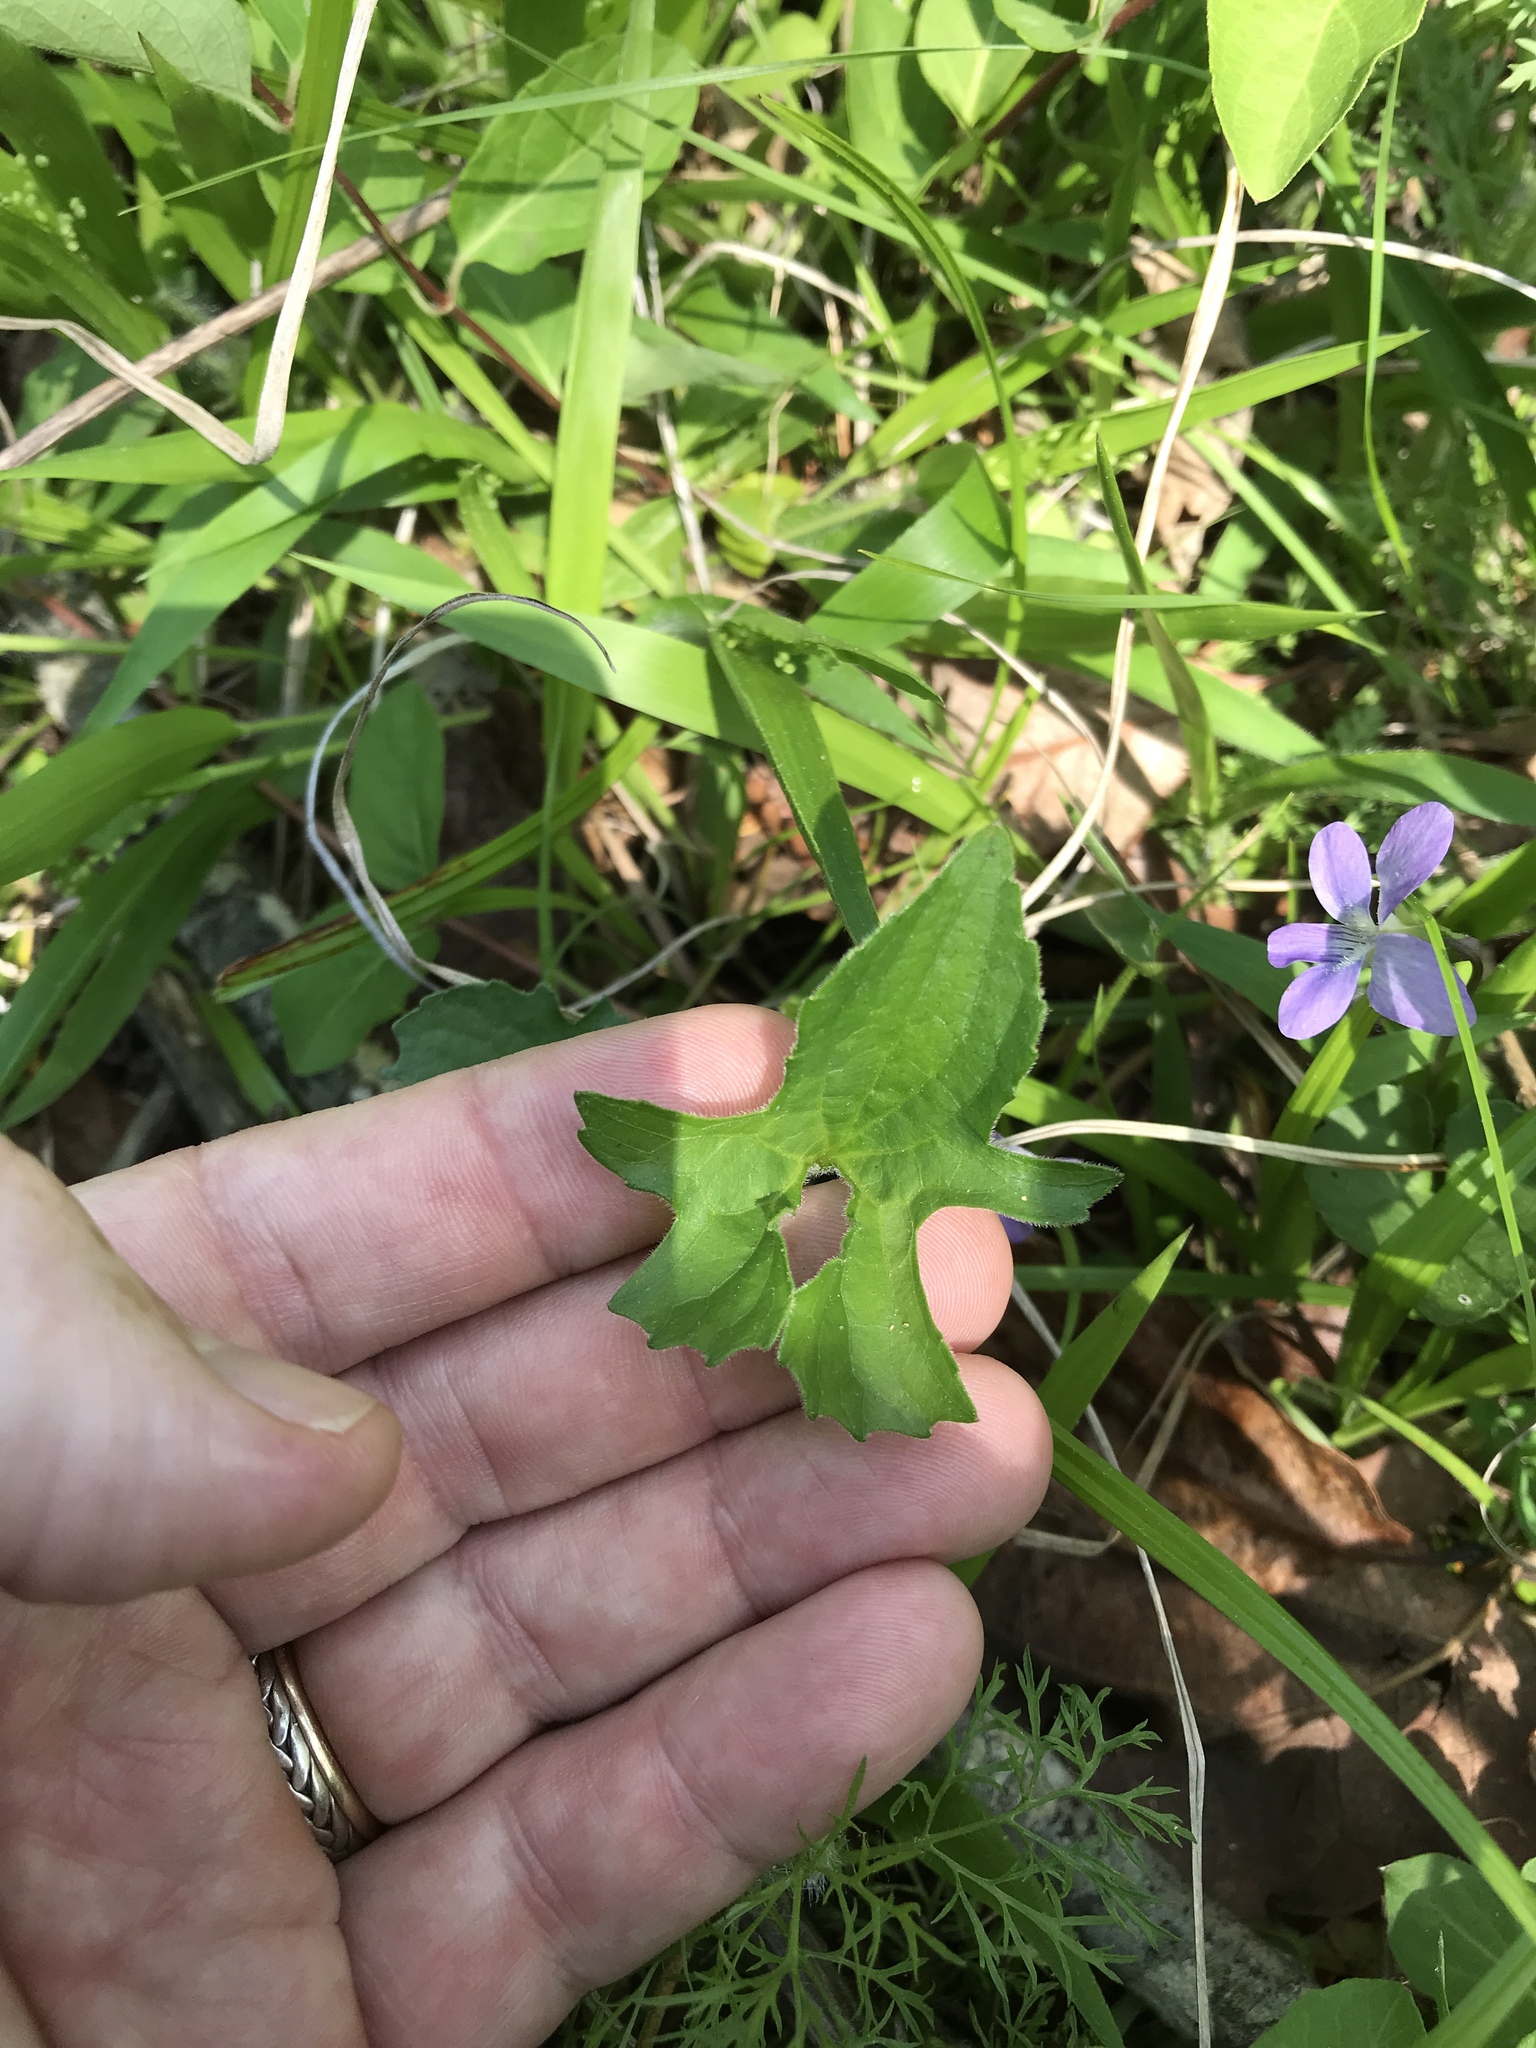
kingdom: Plantae
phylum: Tracheophyta
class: Magnoliopsida
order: Malpighiales
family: Violaceae
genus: Viola
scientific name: Viola palmata
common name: Early blue violet
